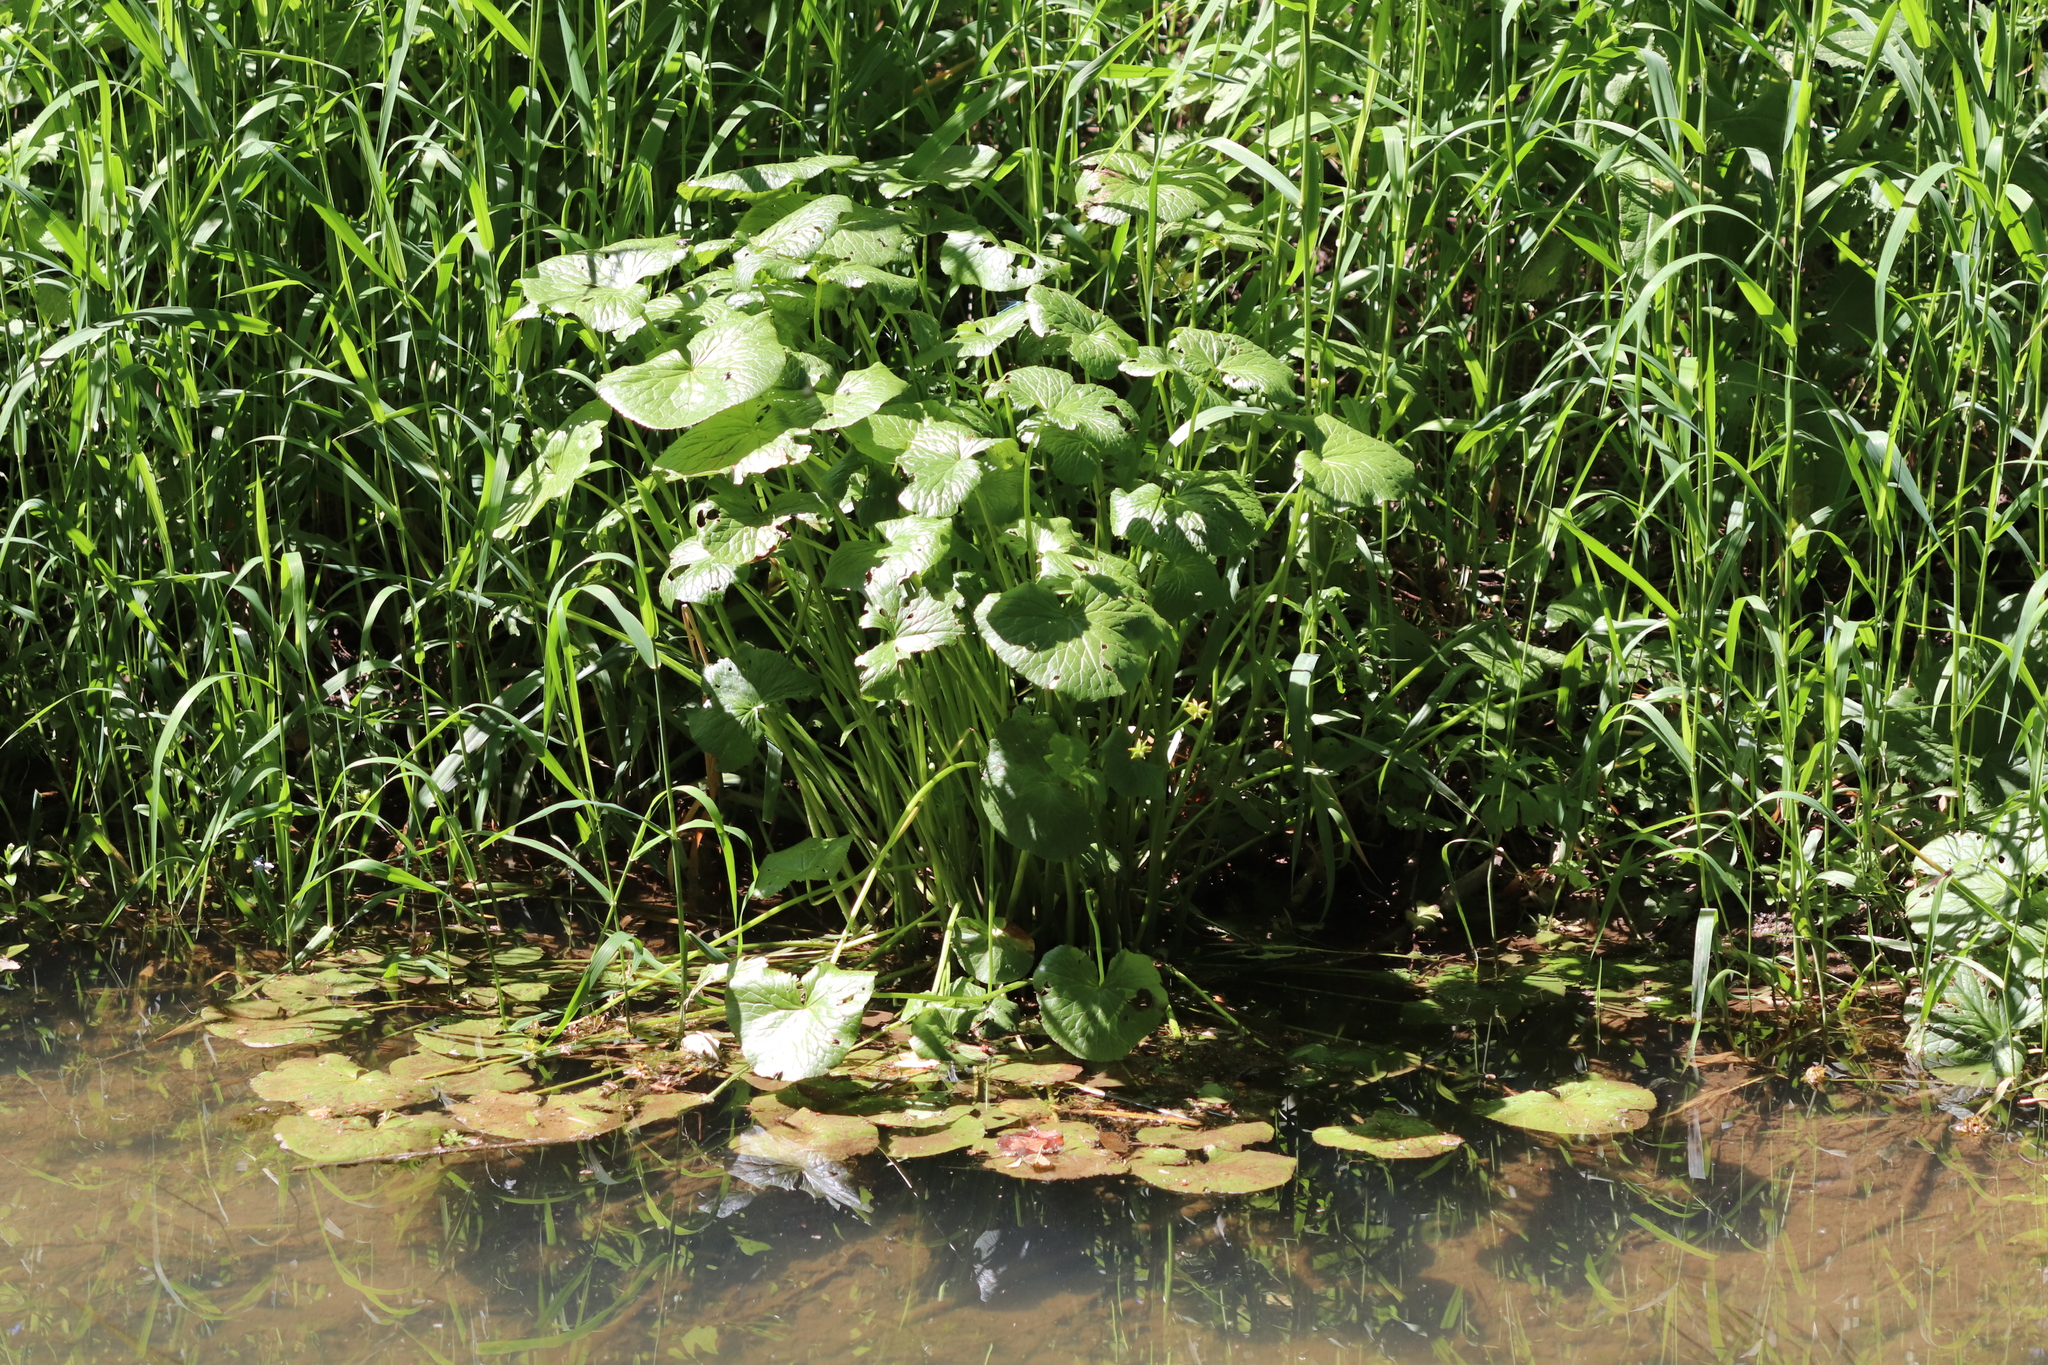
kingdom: Plantae
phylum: Tracheophyta
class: Magnoliopsida
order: Ranunculales
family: Ranunculaceae
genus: Caltha
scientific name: Caltha palustris
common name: Marsh marigold
